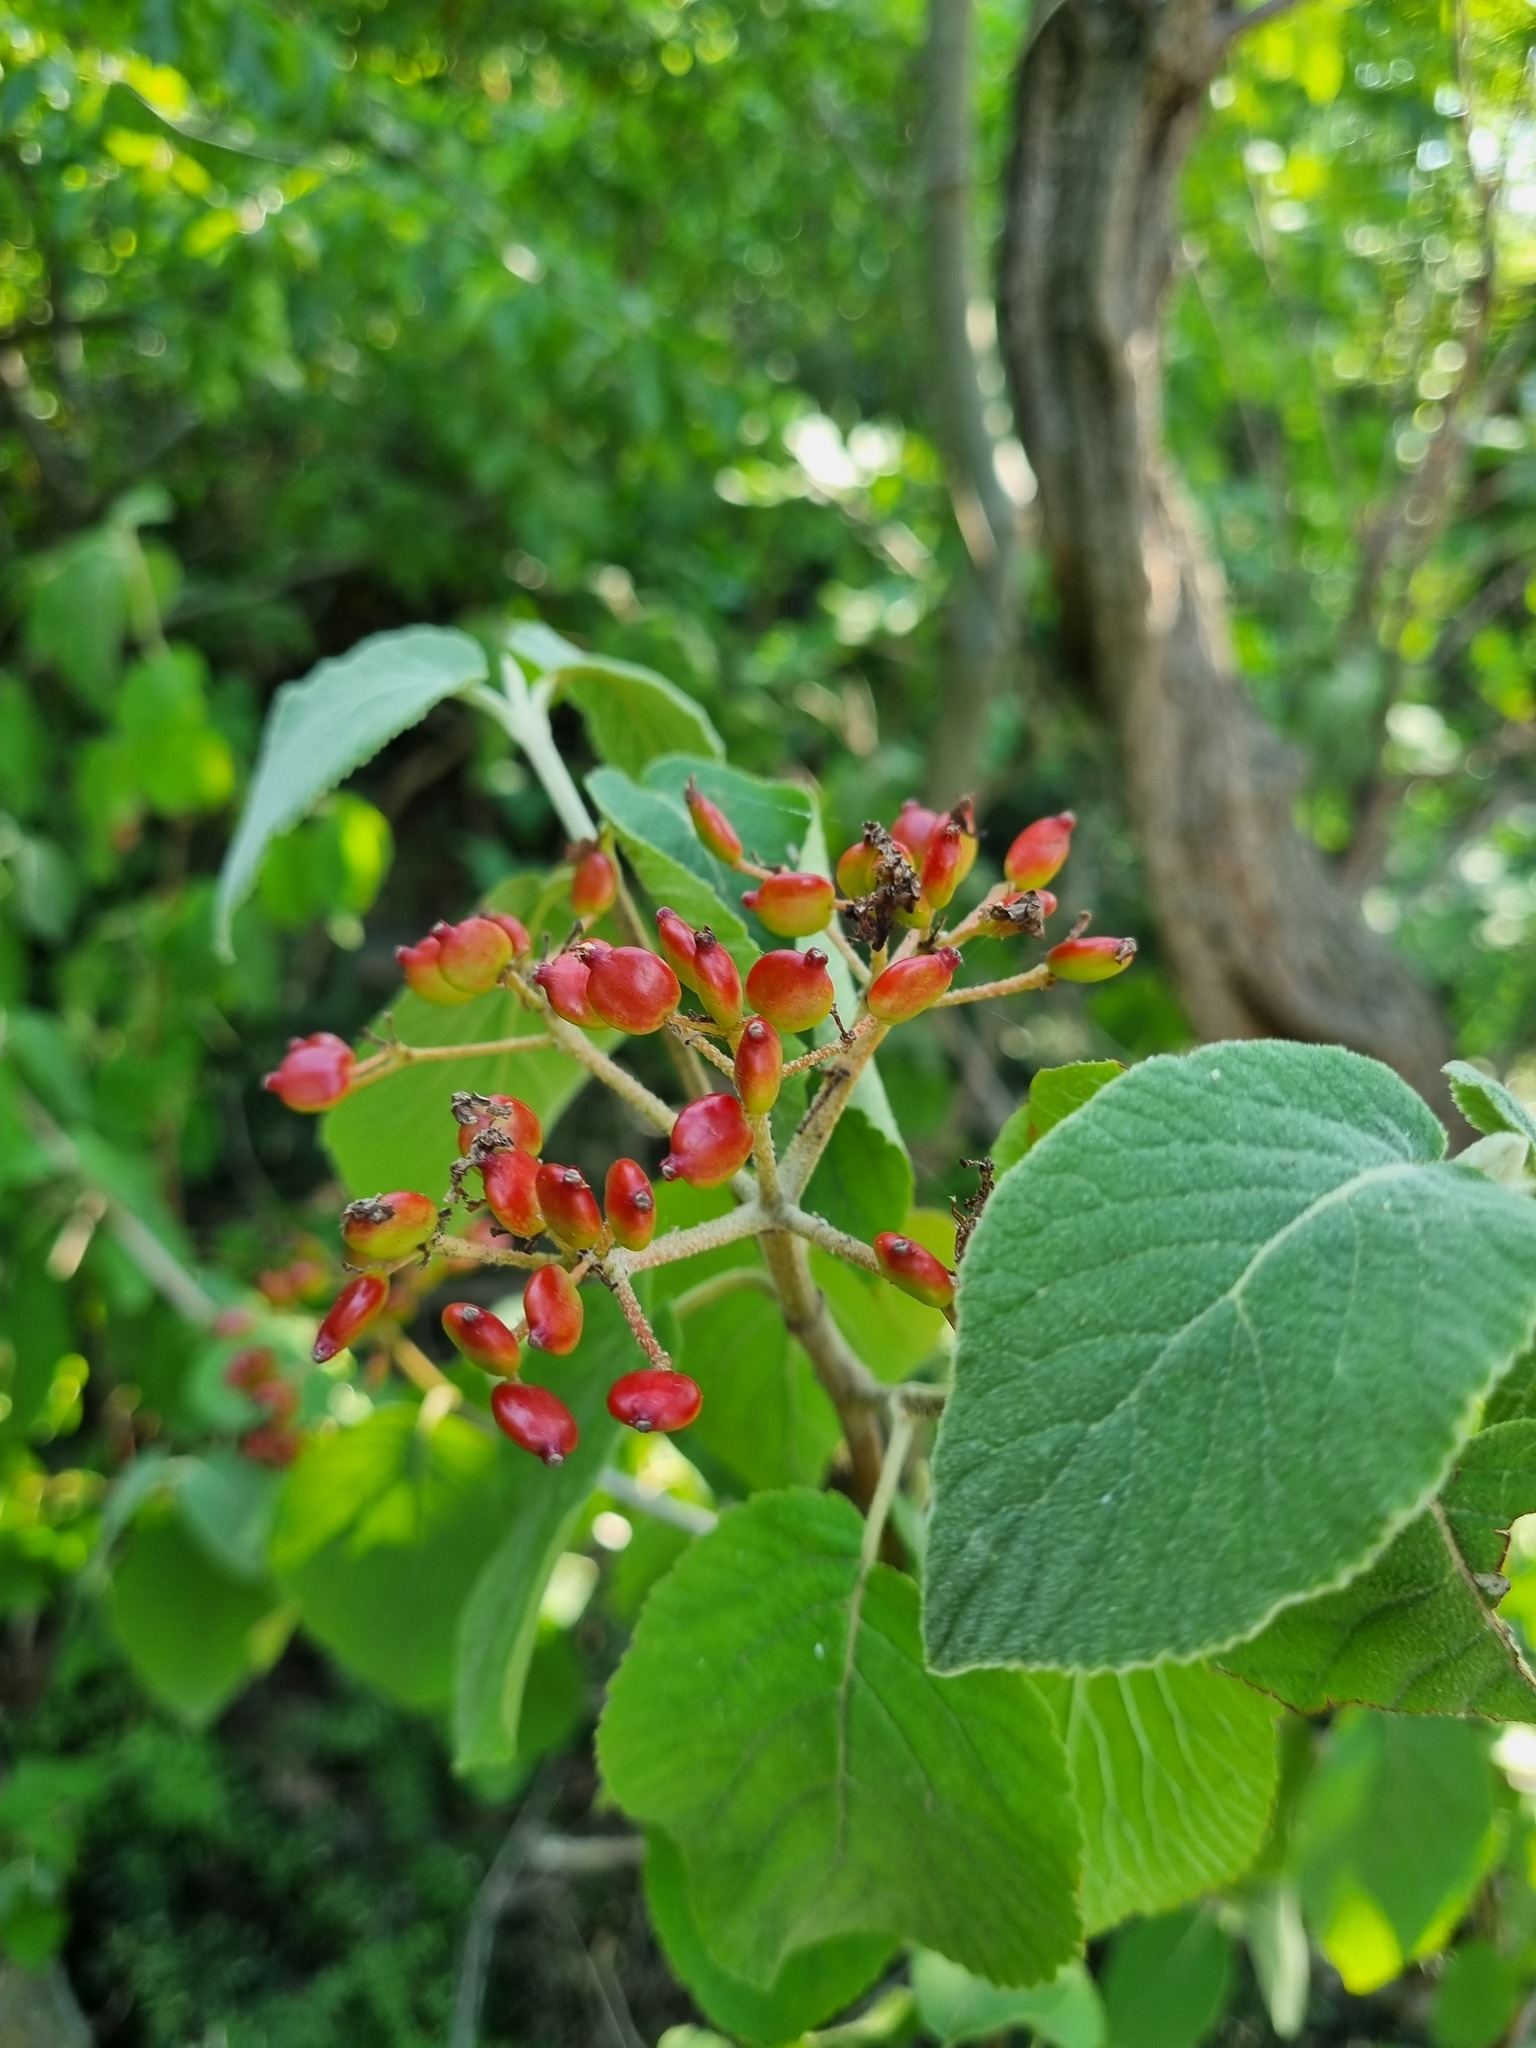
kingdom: Plantae
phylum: Tracheophyta
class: Magnoliopsida
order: Dipsacales
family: Viburnaceae
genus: Viburnum
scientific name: Viburnum lantana
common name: Wayfaring tree
